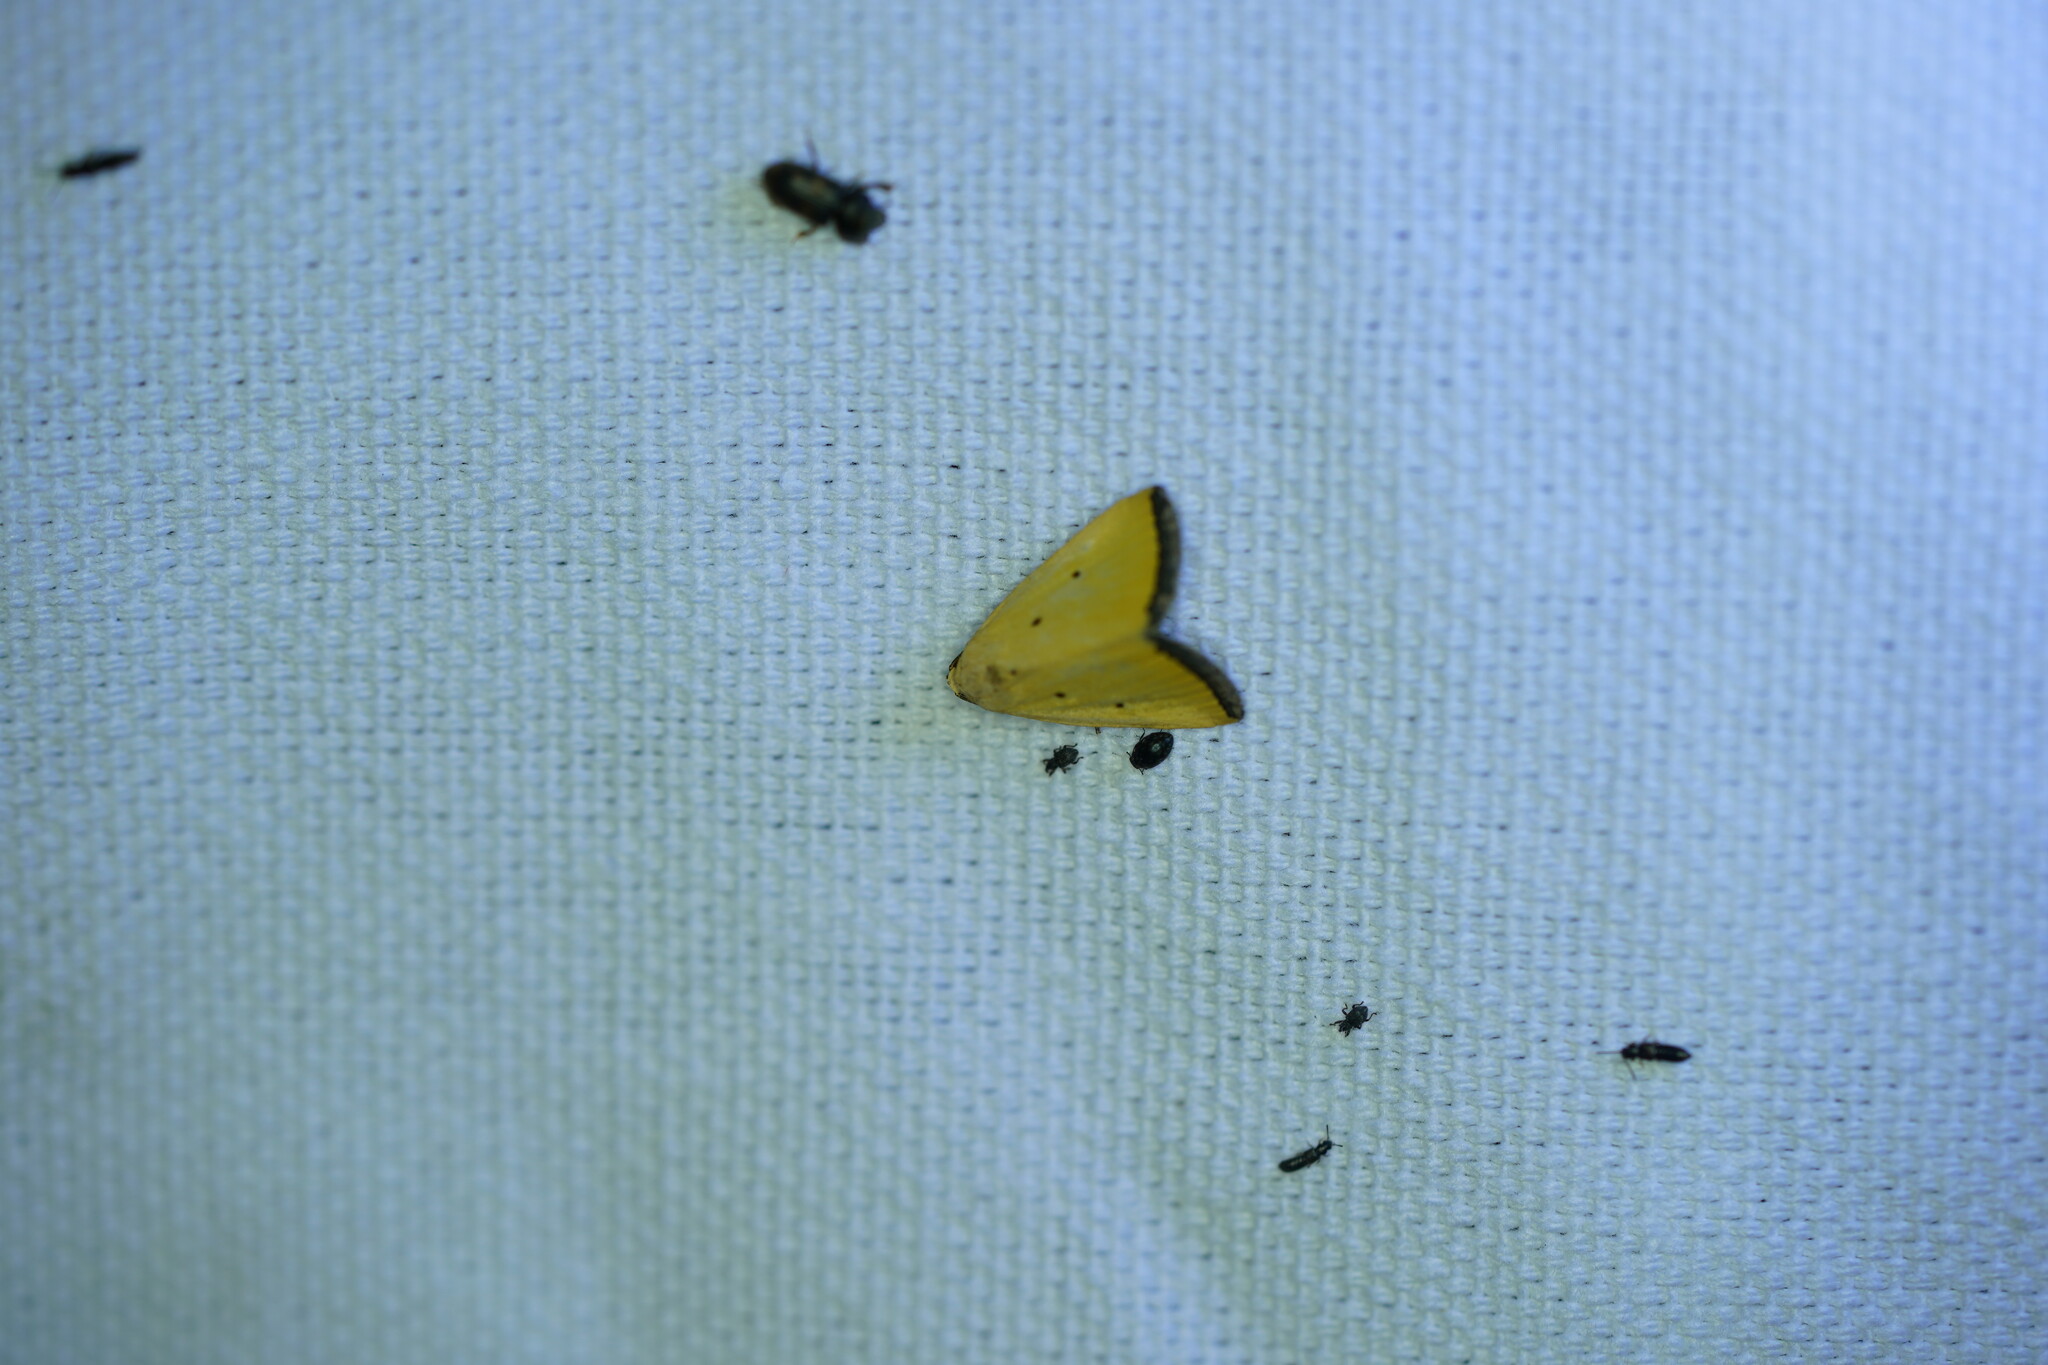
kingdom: Animalia
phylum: Arthropoda
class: Insecta
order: Lepidoptera
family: Noctuidae
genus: Marimatha
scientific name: Marimatha nigrofimbria
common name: Black-bordered lemon moth
